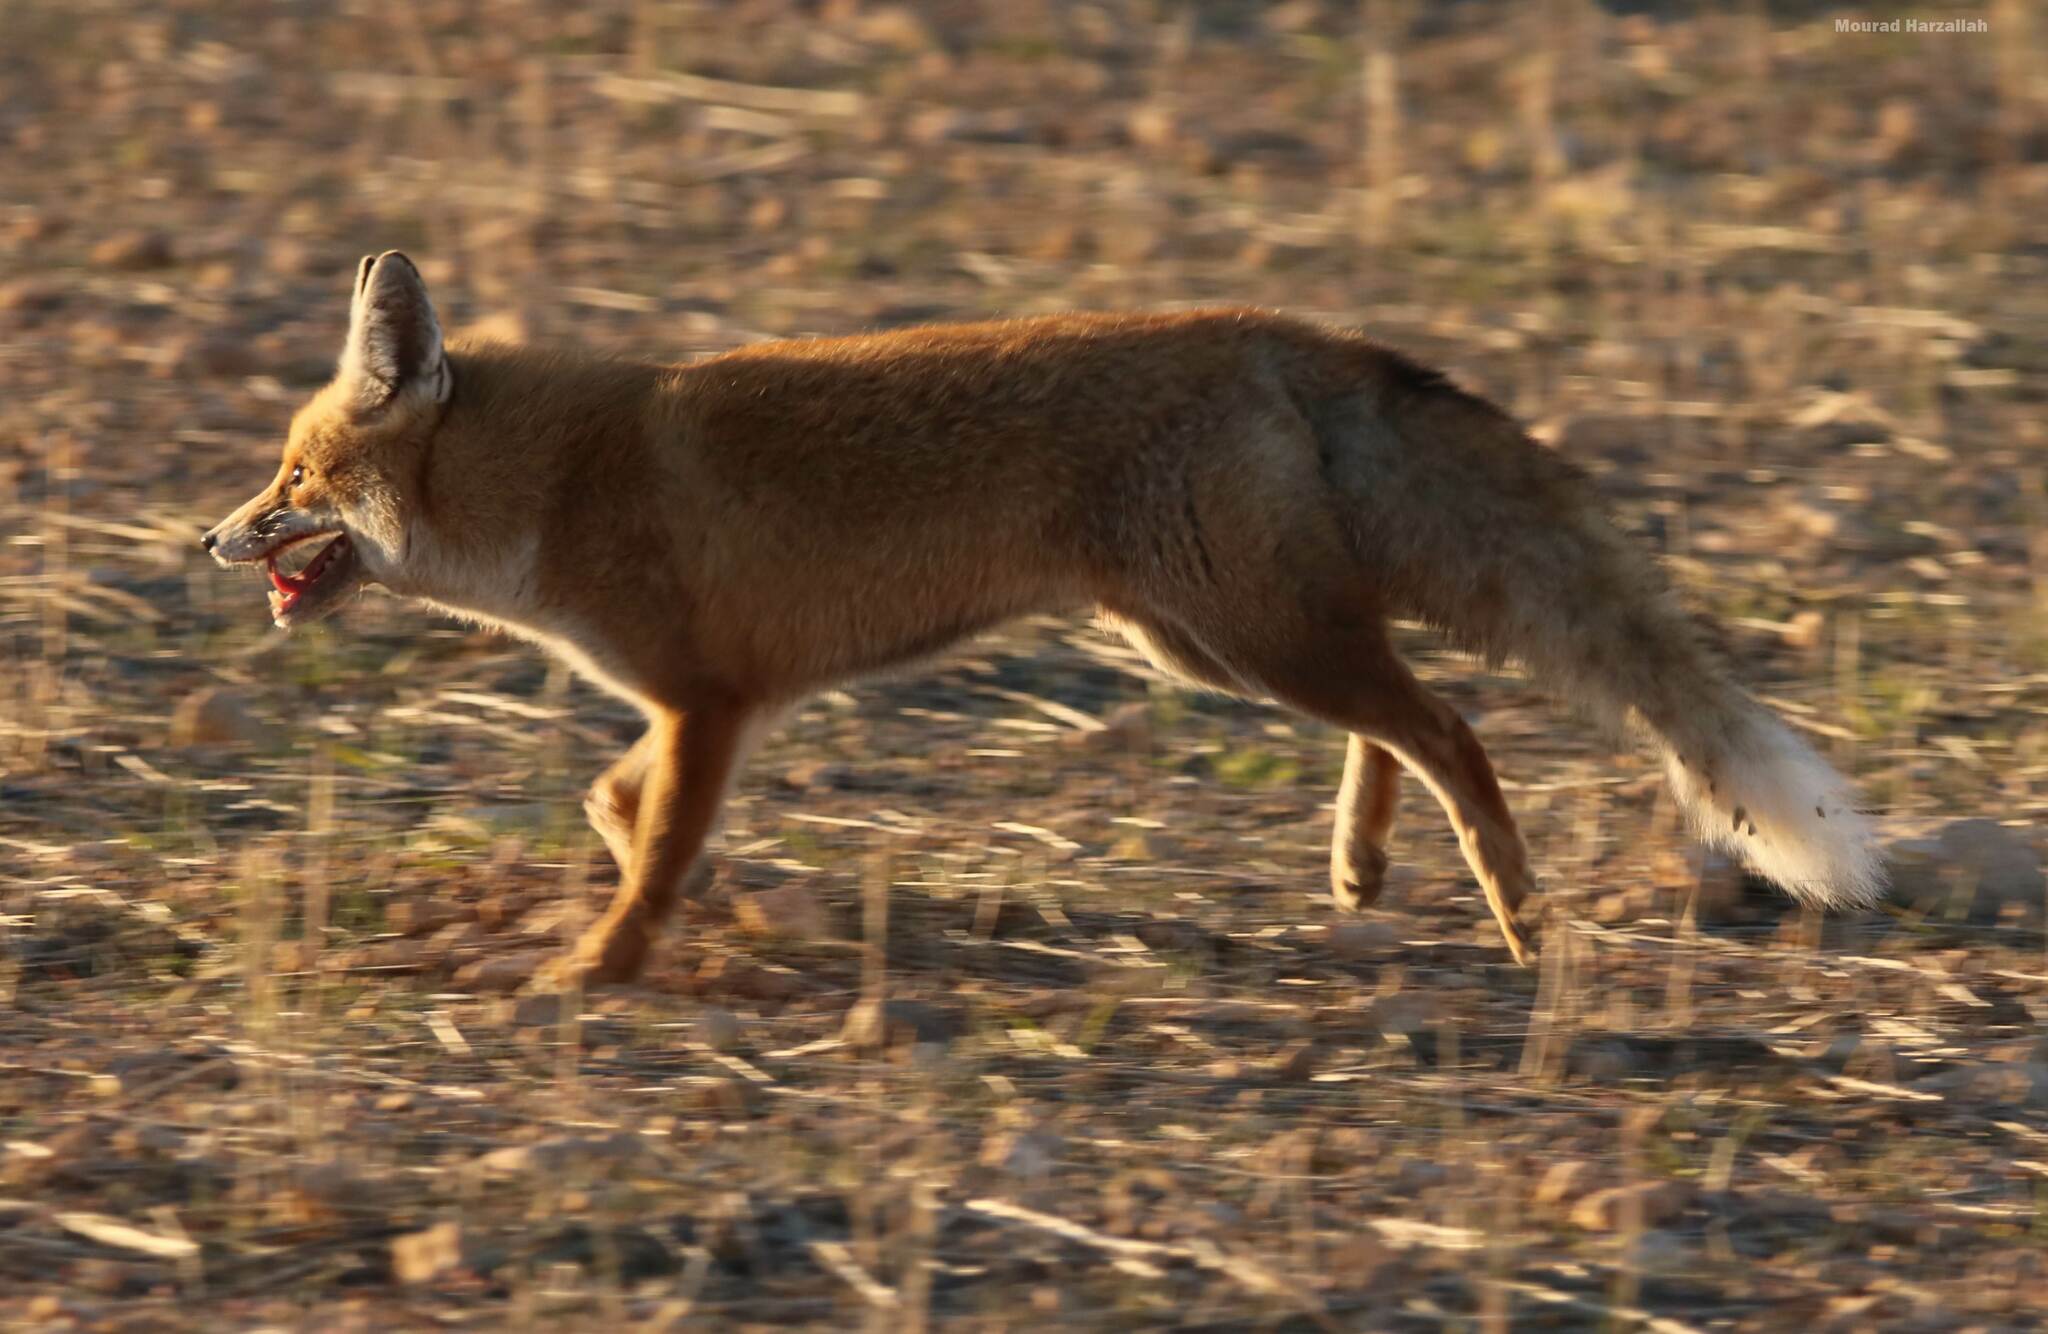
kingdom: Animalia
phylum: Chordata
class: Mammalia
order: Carnivora
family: Canidae
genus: Vulpes
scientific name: Vulpes vulpes
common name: Red fox
